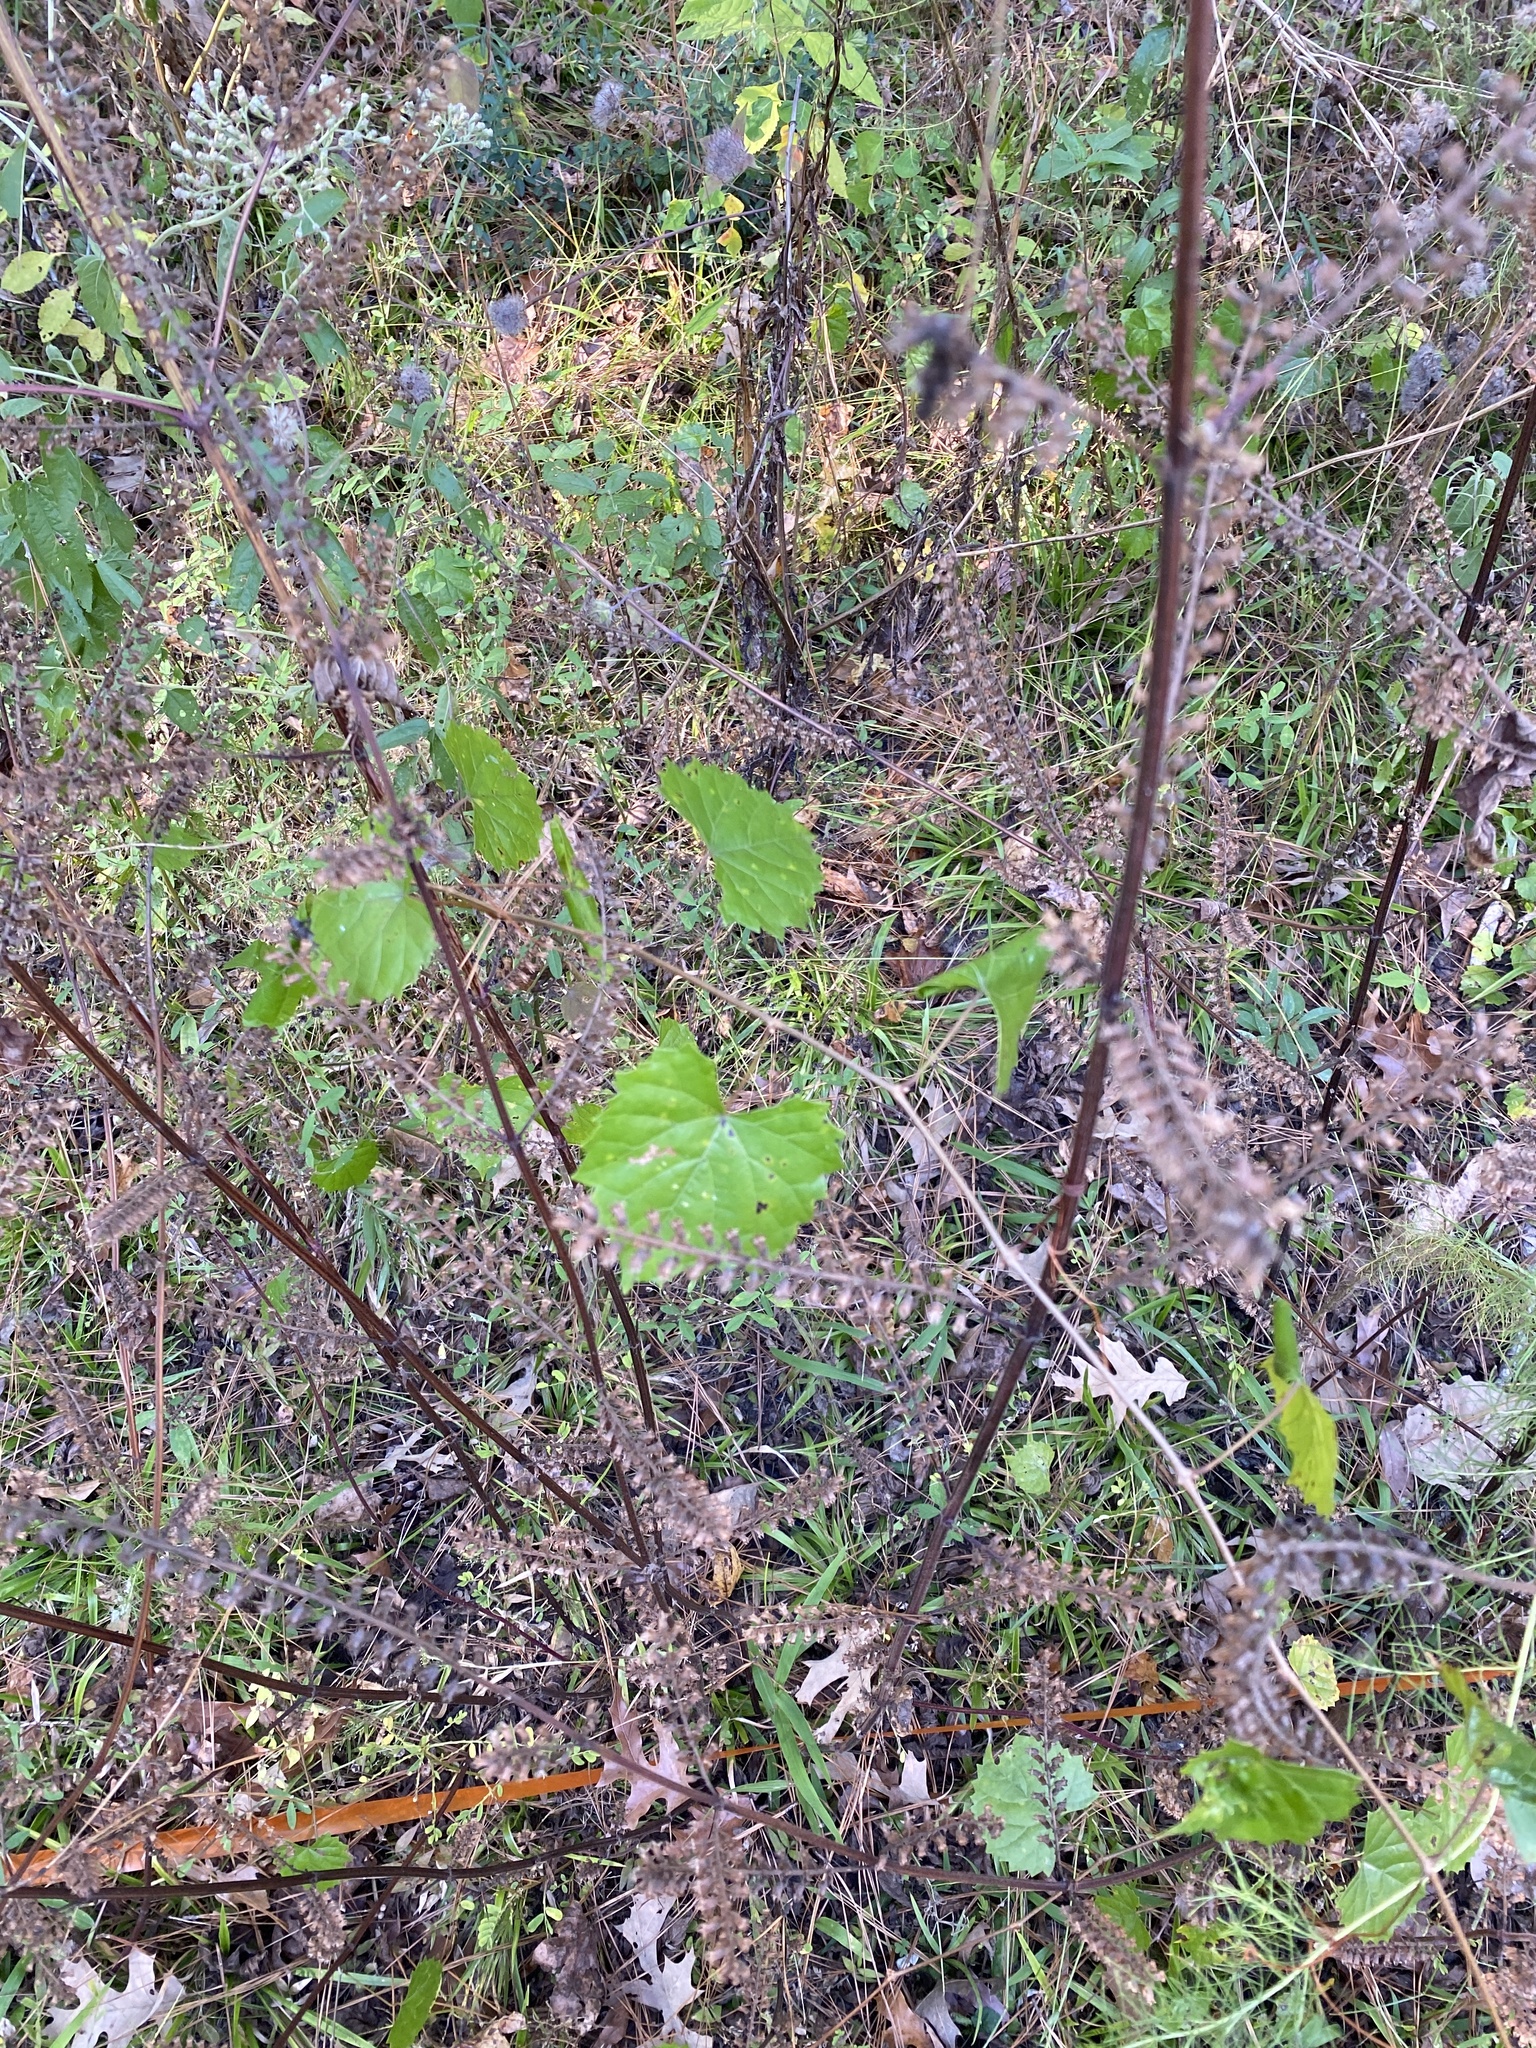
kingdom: Plantae
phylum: Tracheophyta
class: Magnoliopsida
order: Vitales
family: Vitaceae
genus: Vitis
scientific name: Vitis rotundifolia
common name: Muscadine grape
